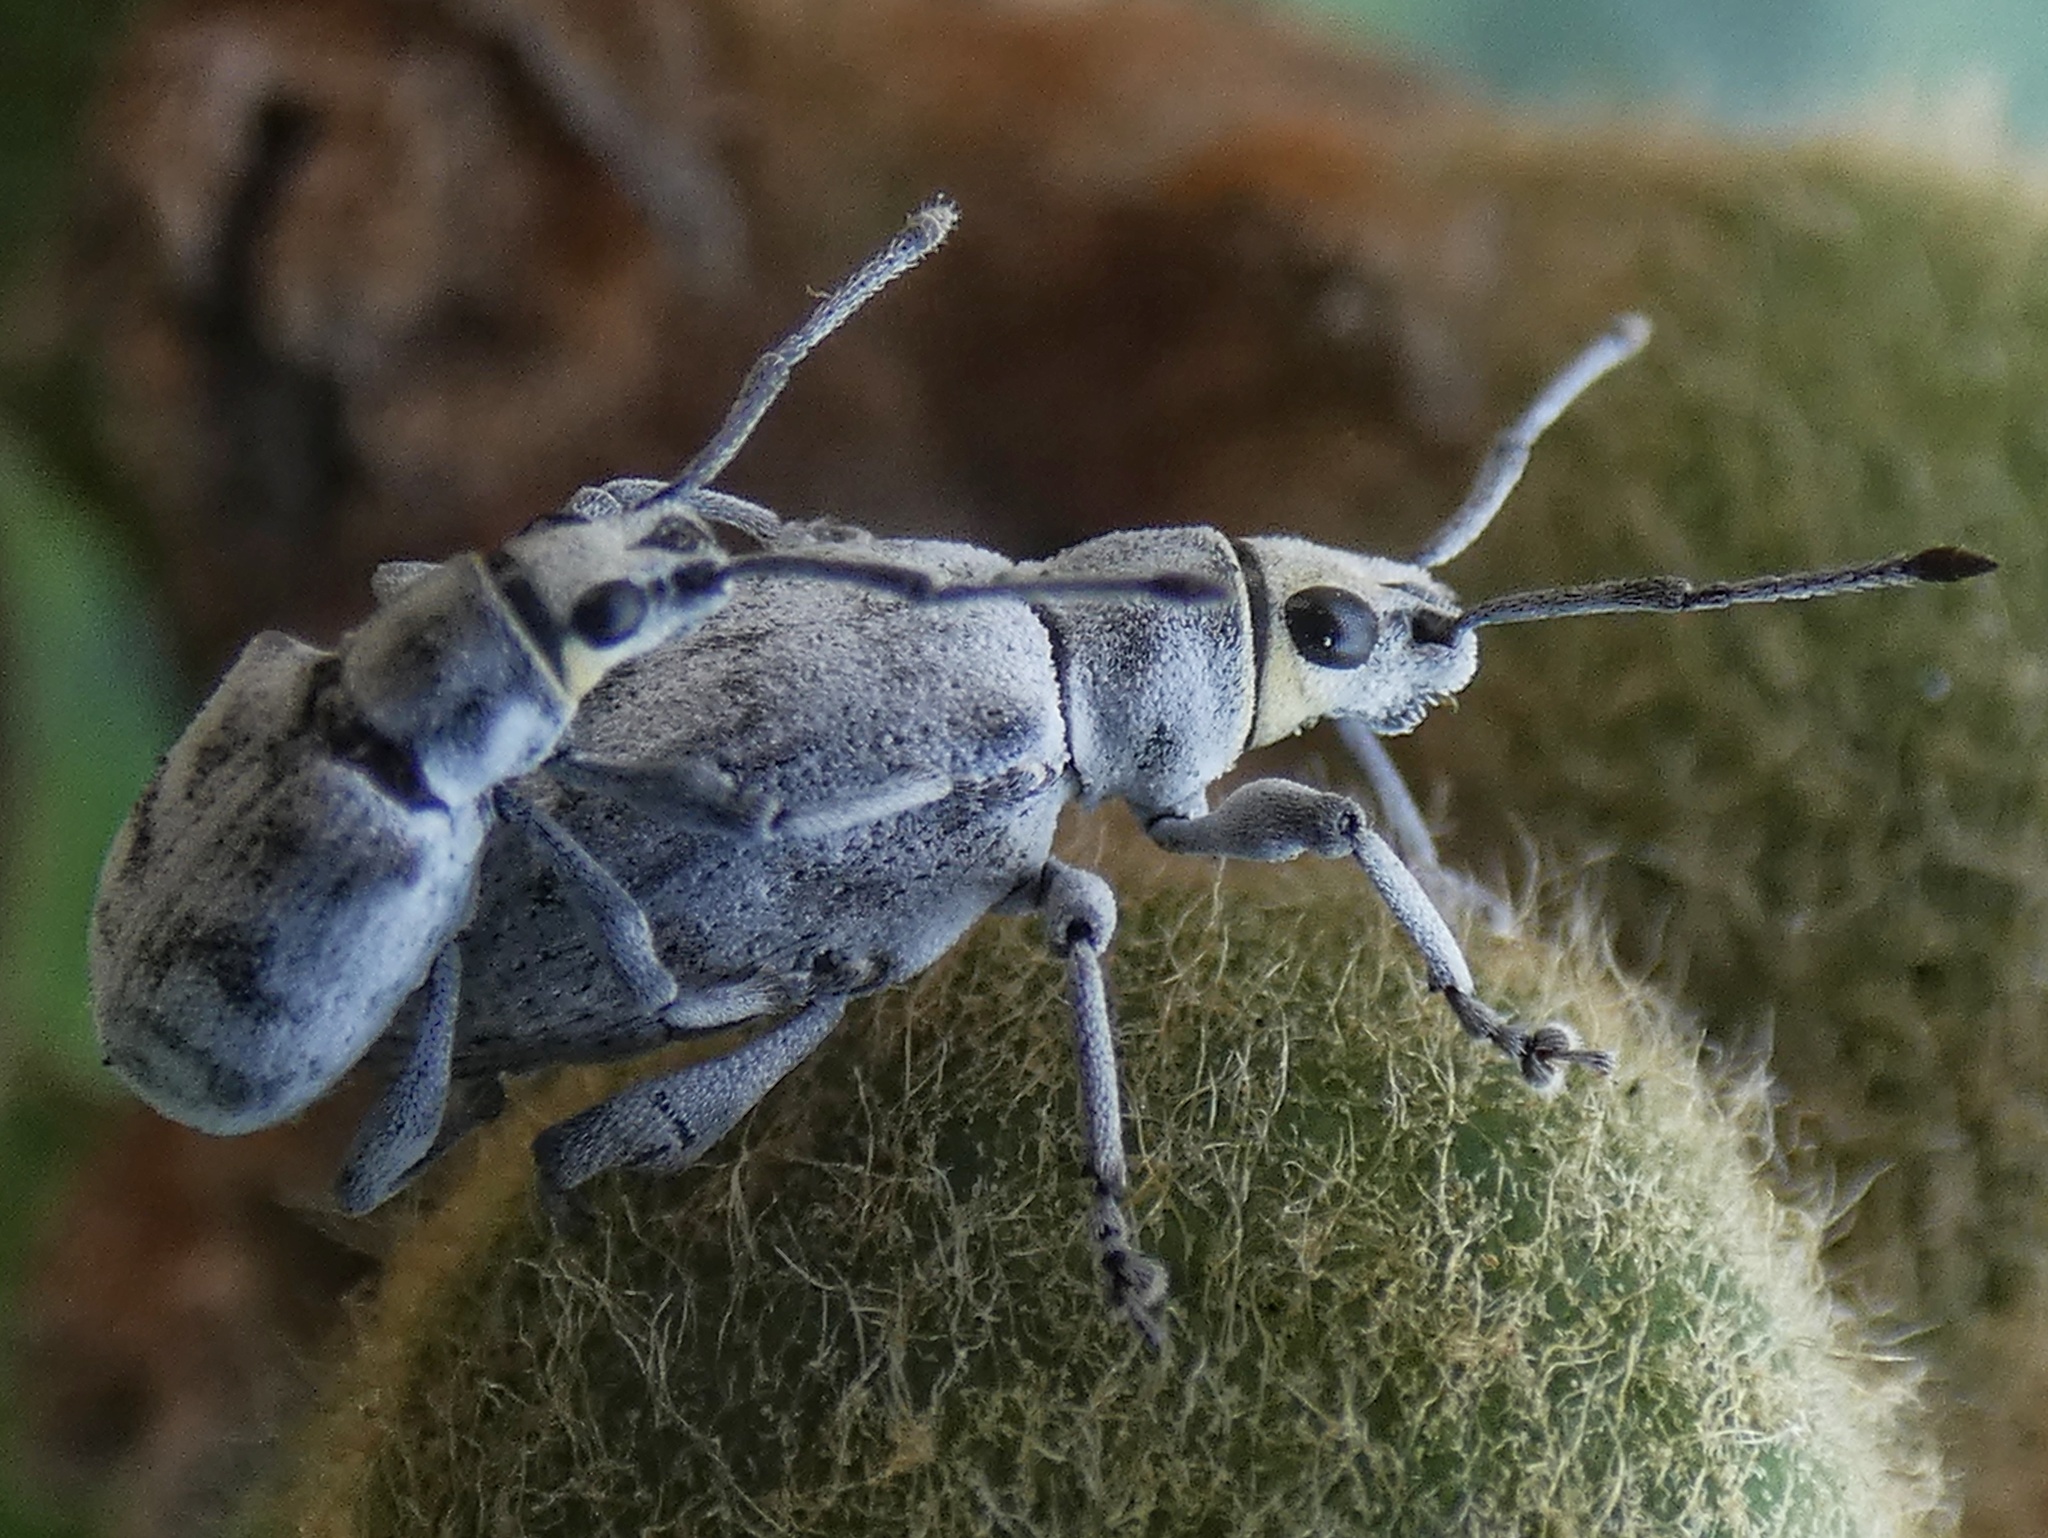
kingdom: Animalia
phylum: Arthropoda
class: Insecta
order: Coleoptera
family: Curculionidae
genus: Myllocerus
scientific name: Myllocerus undecimpustulatus
